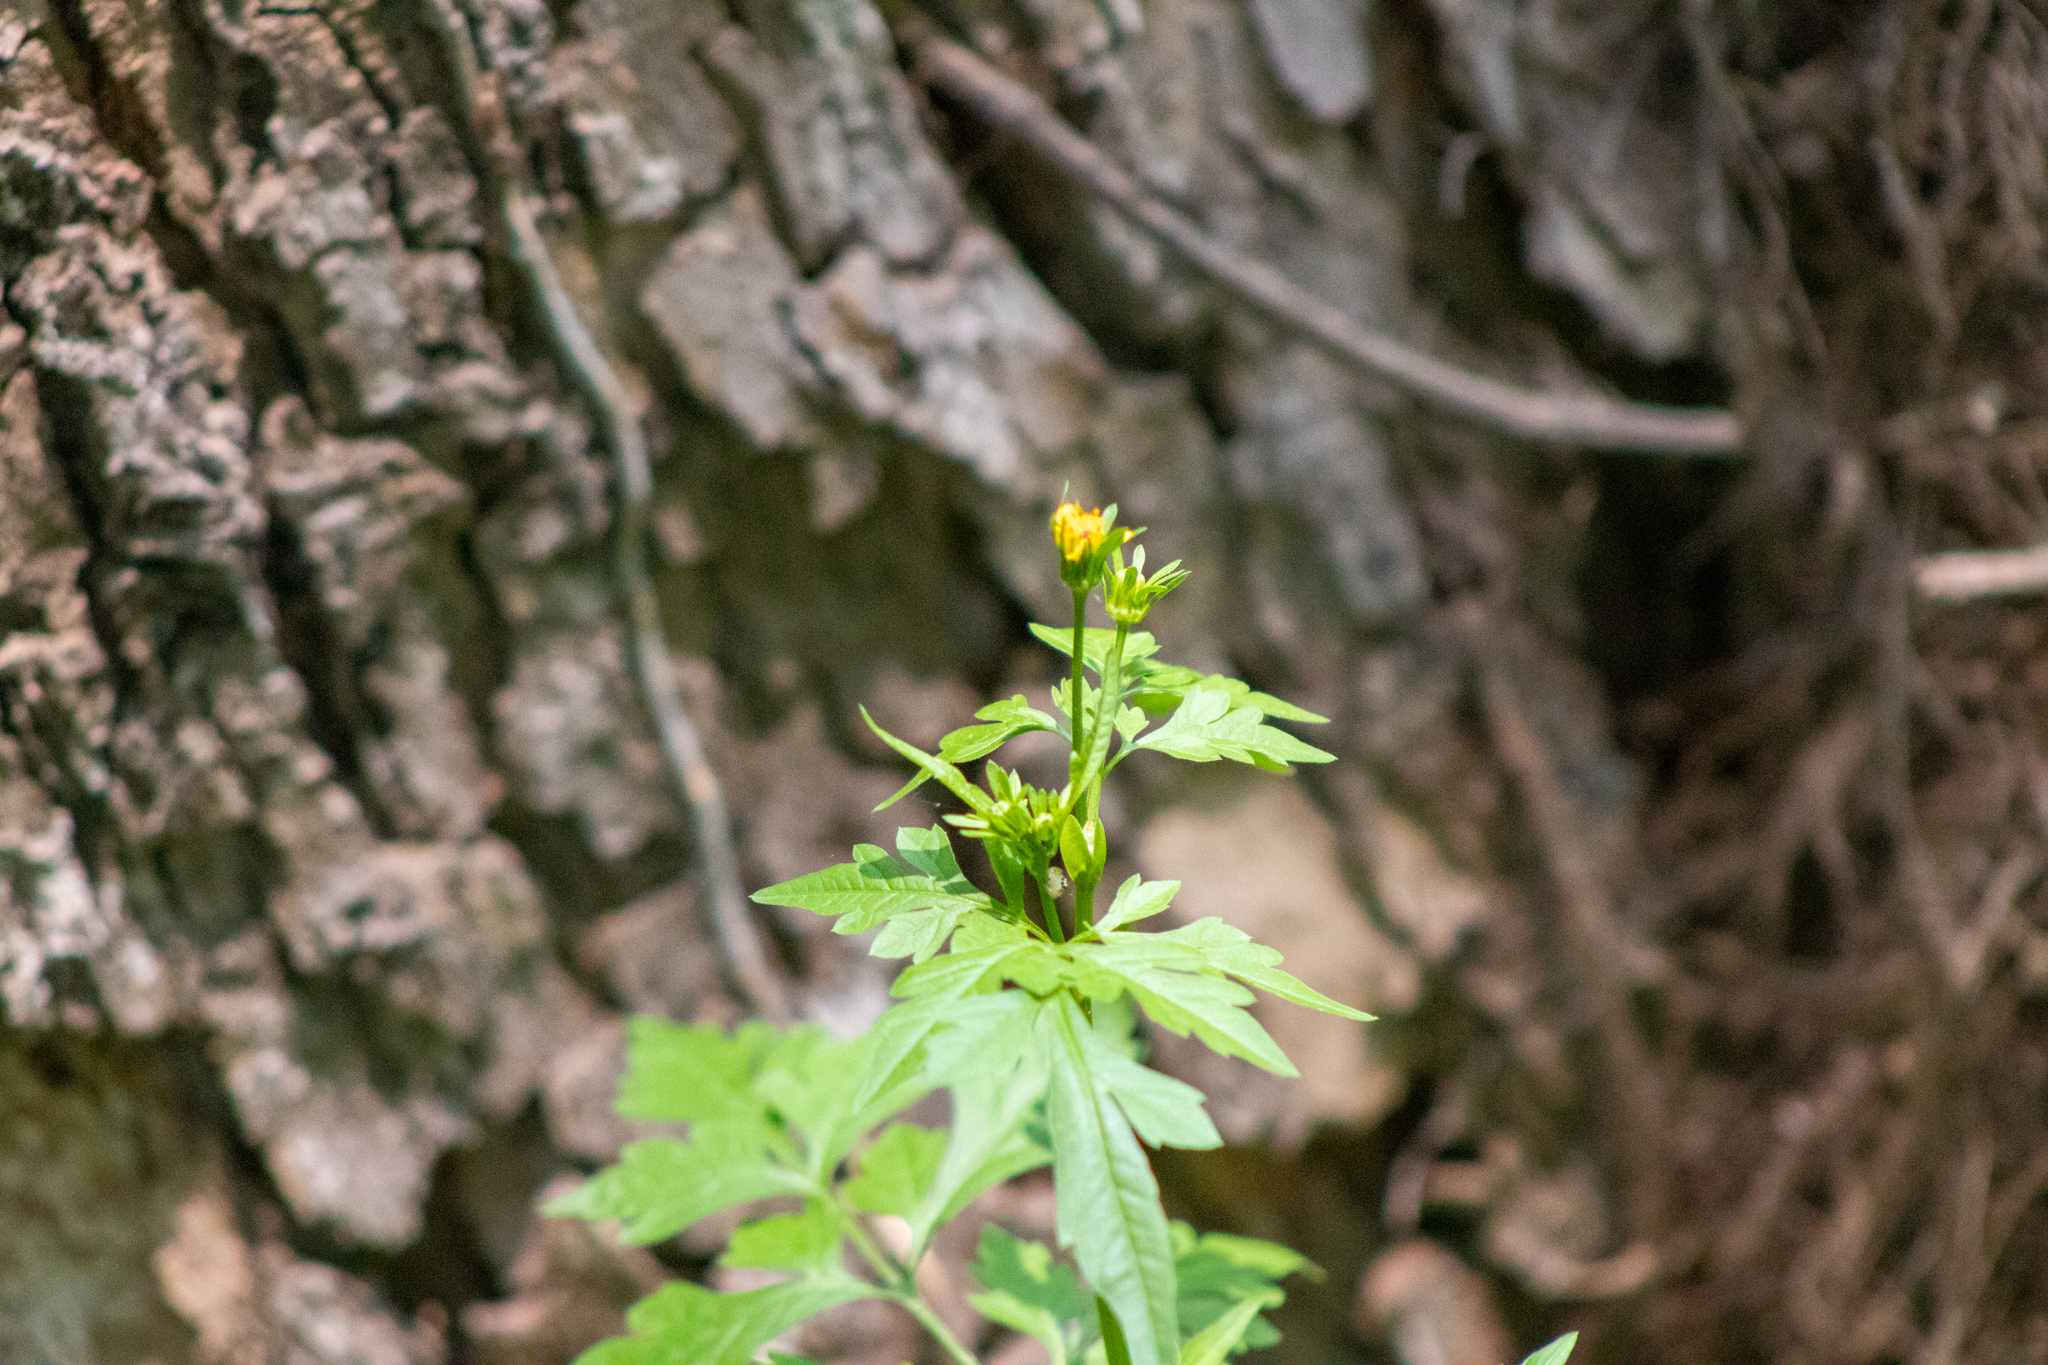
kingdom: Plantae
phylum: Tracheophyta
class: Magnoliopsida
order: Asterales
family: Asteraceae
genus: Bidens
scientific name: Bidens bipinnata
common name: Spanish-needles
